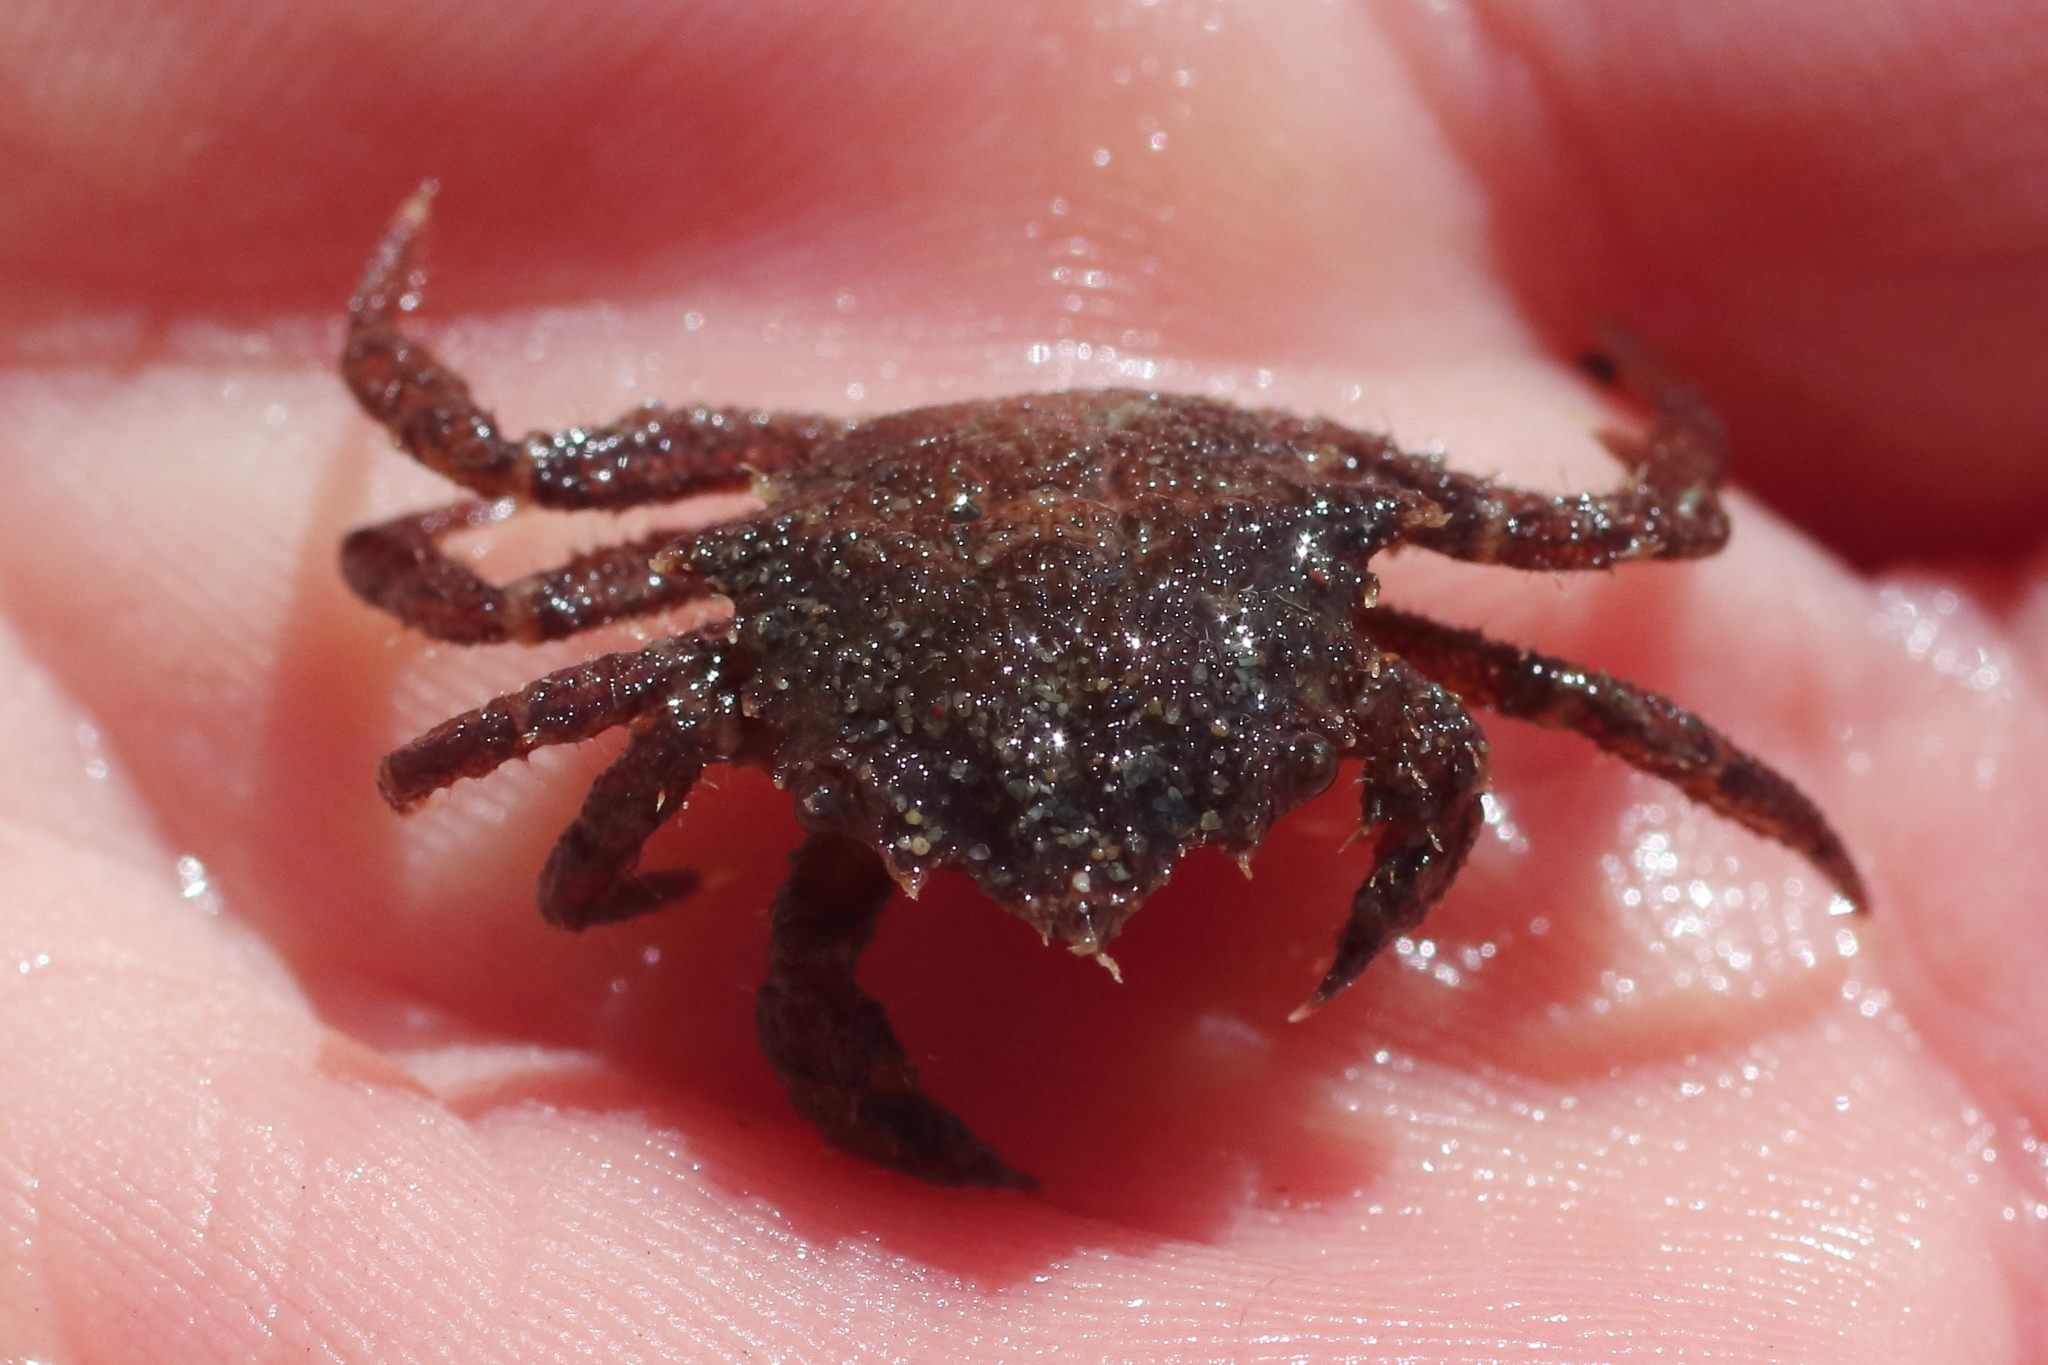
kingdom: Animalia
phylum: Arthropoda
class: Malacostraca
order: Decapoda
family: Cheiragonidae
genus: Telmessus
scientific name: Telmessus cheiragonus
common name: Helmet crab
